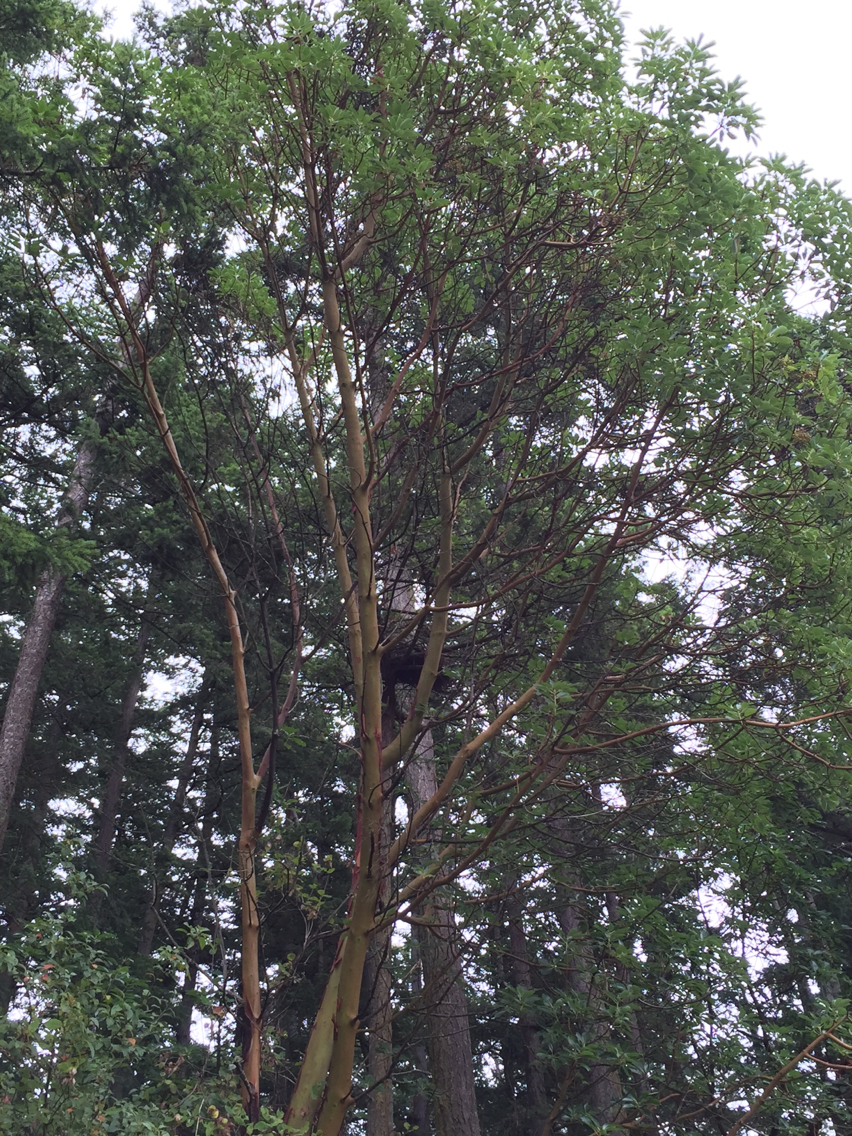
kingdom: Plantae
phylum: Tracheophyta
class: Magnoliopsida
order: Ericales
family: Ericaceae
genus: Arbutus
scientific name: Arbutus menziesii
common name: Pacific madrone
